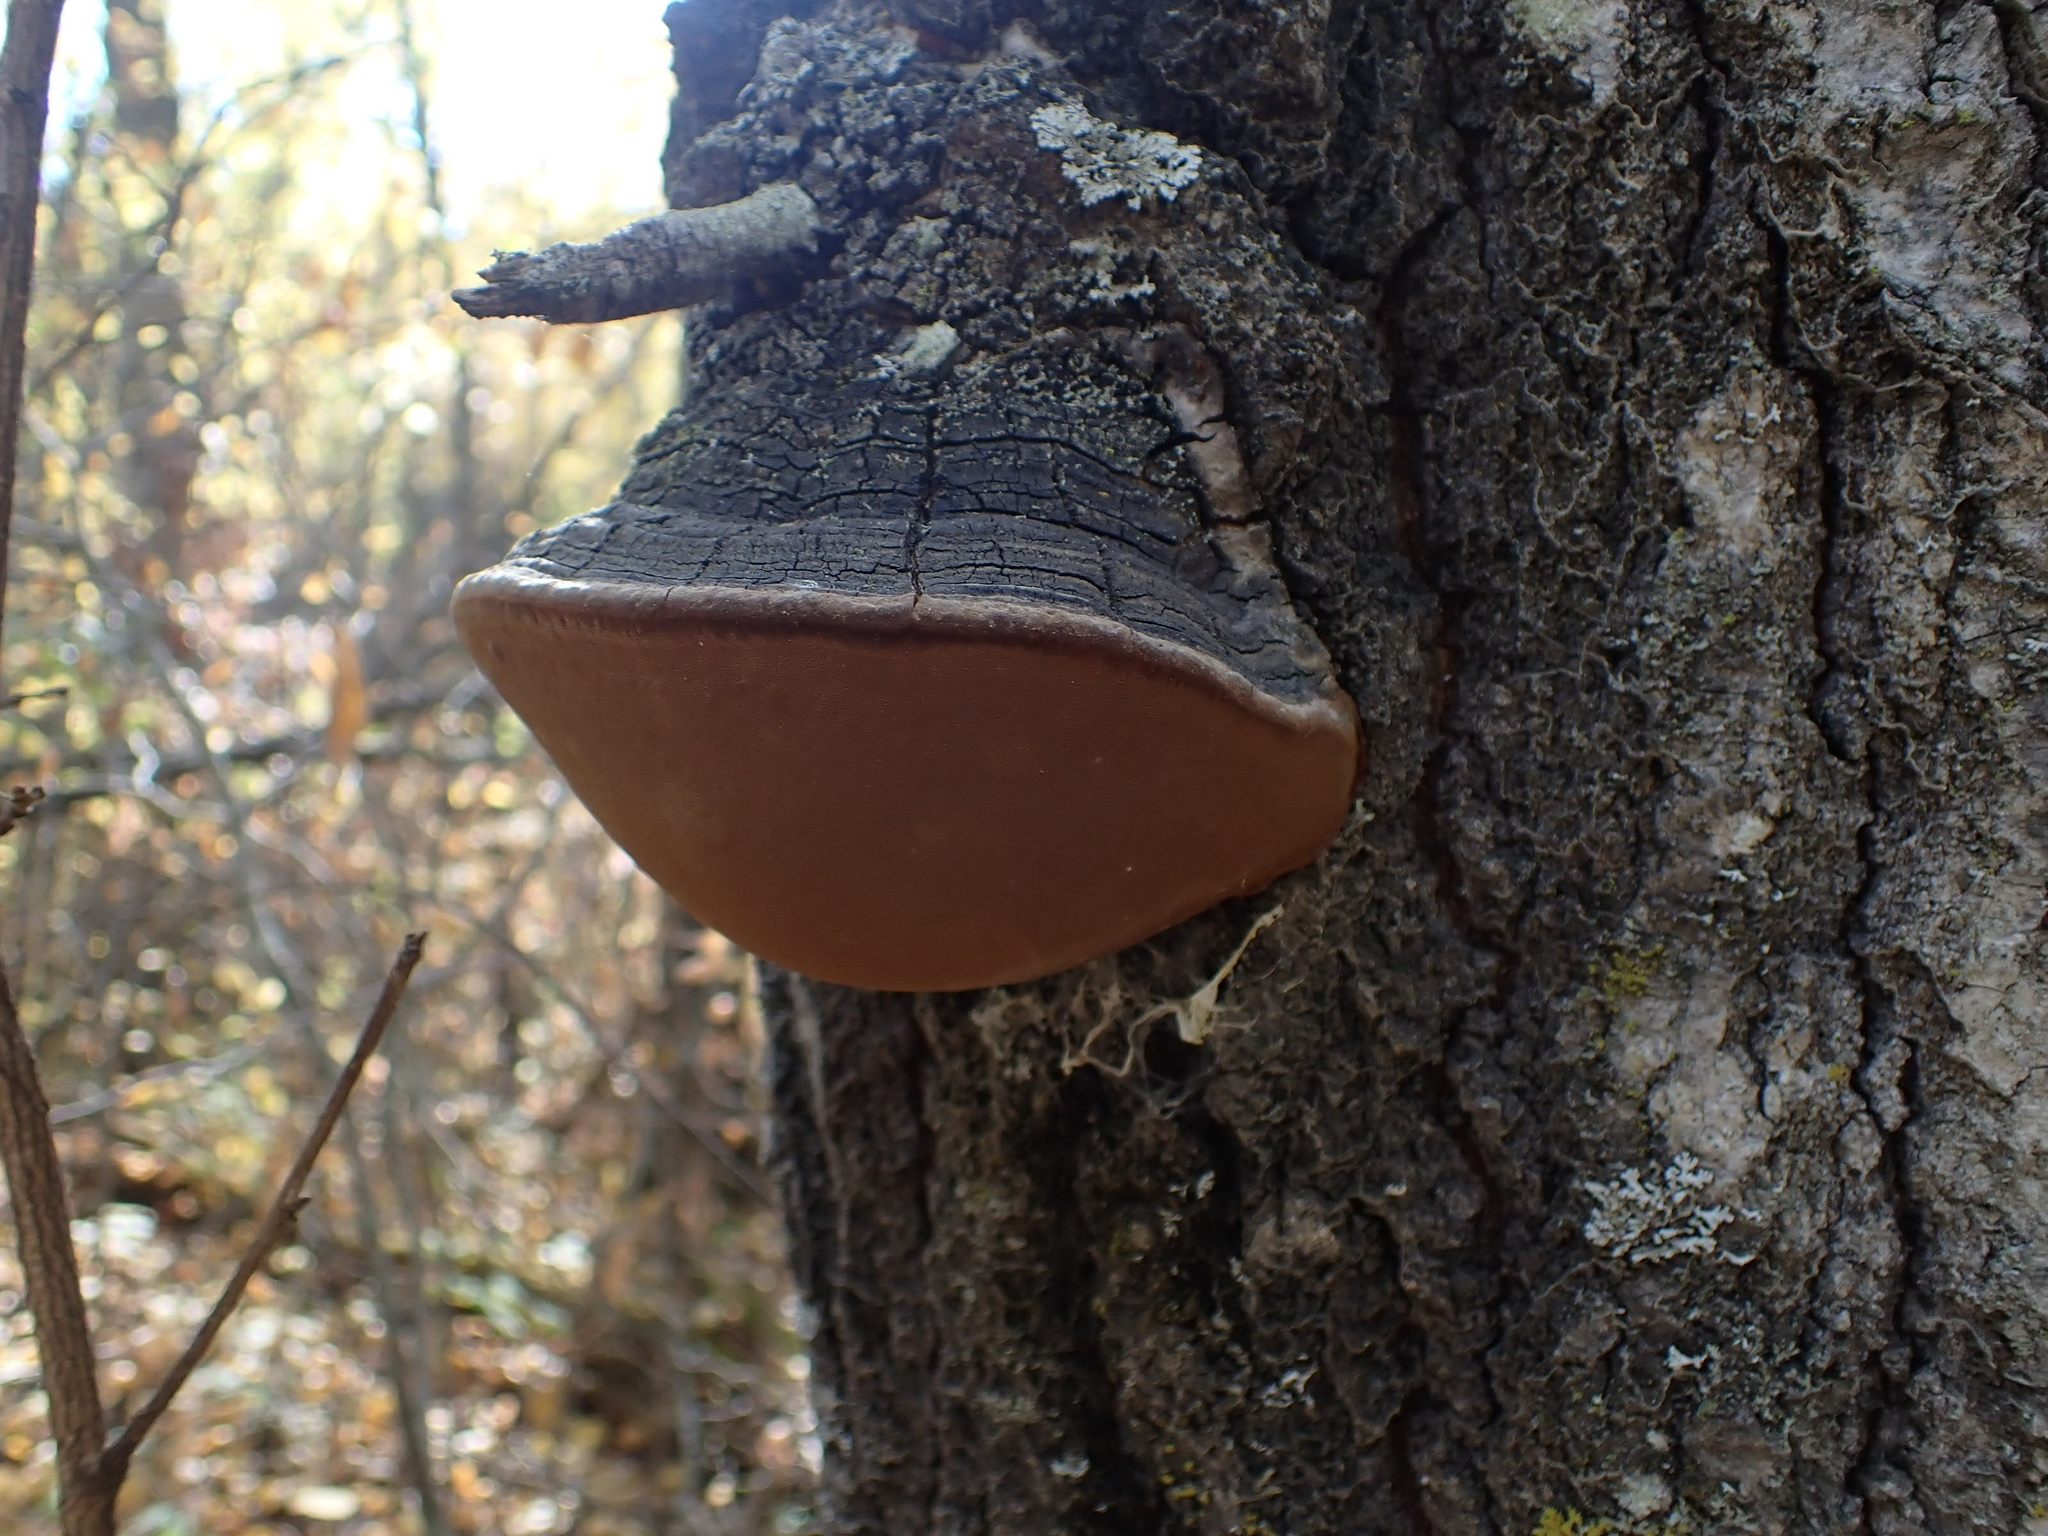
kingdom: Fungi
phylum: Basidiomycota
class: Agaricomycetes
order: Hymenochaetales
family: Hymenochaetaceae
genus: Phellinus
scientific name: Phellinus tremulae
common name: Aspen bracket
